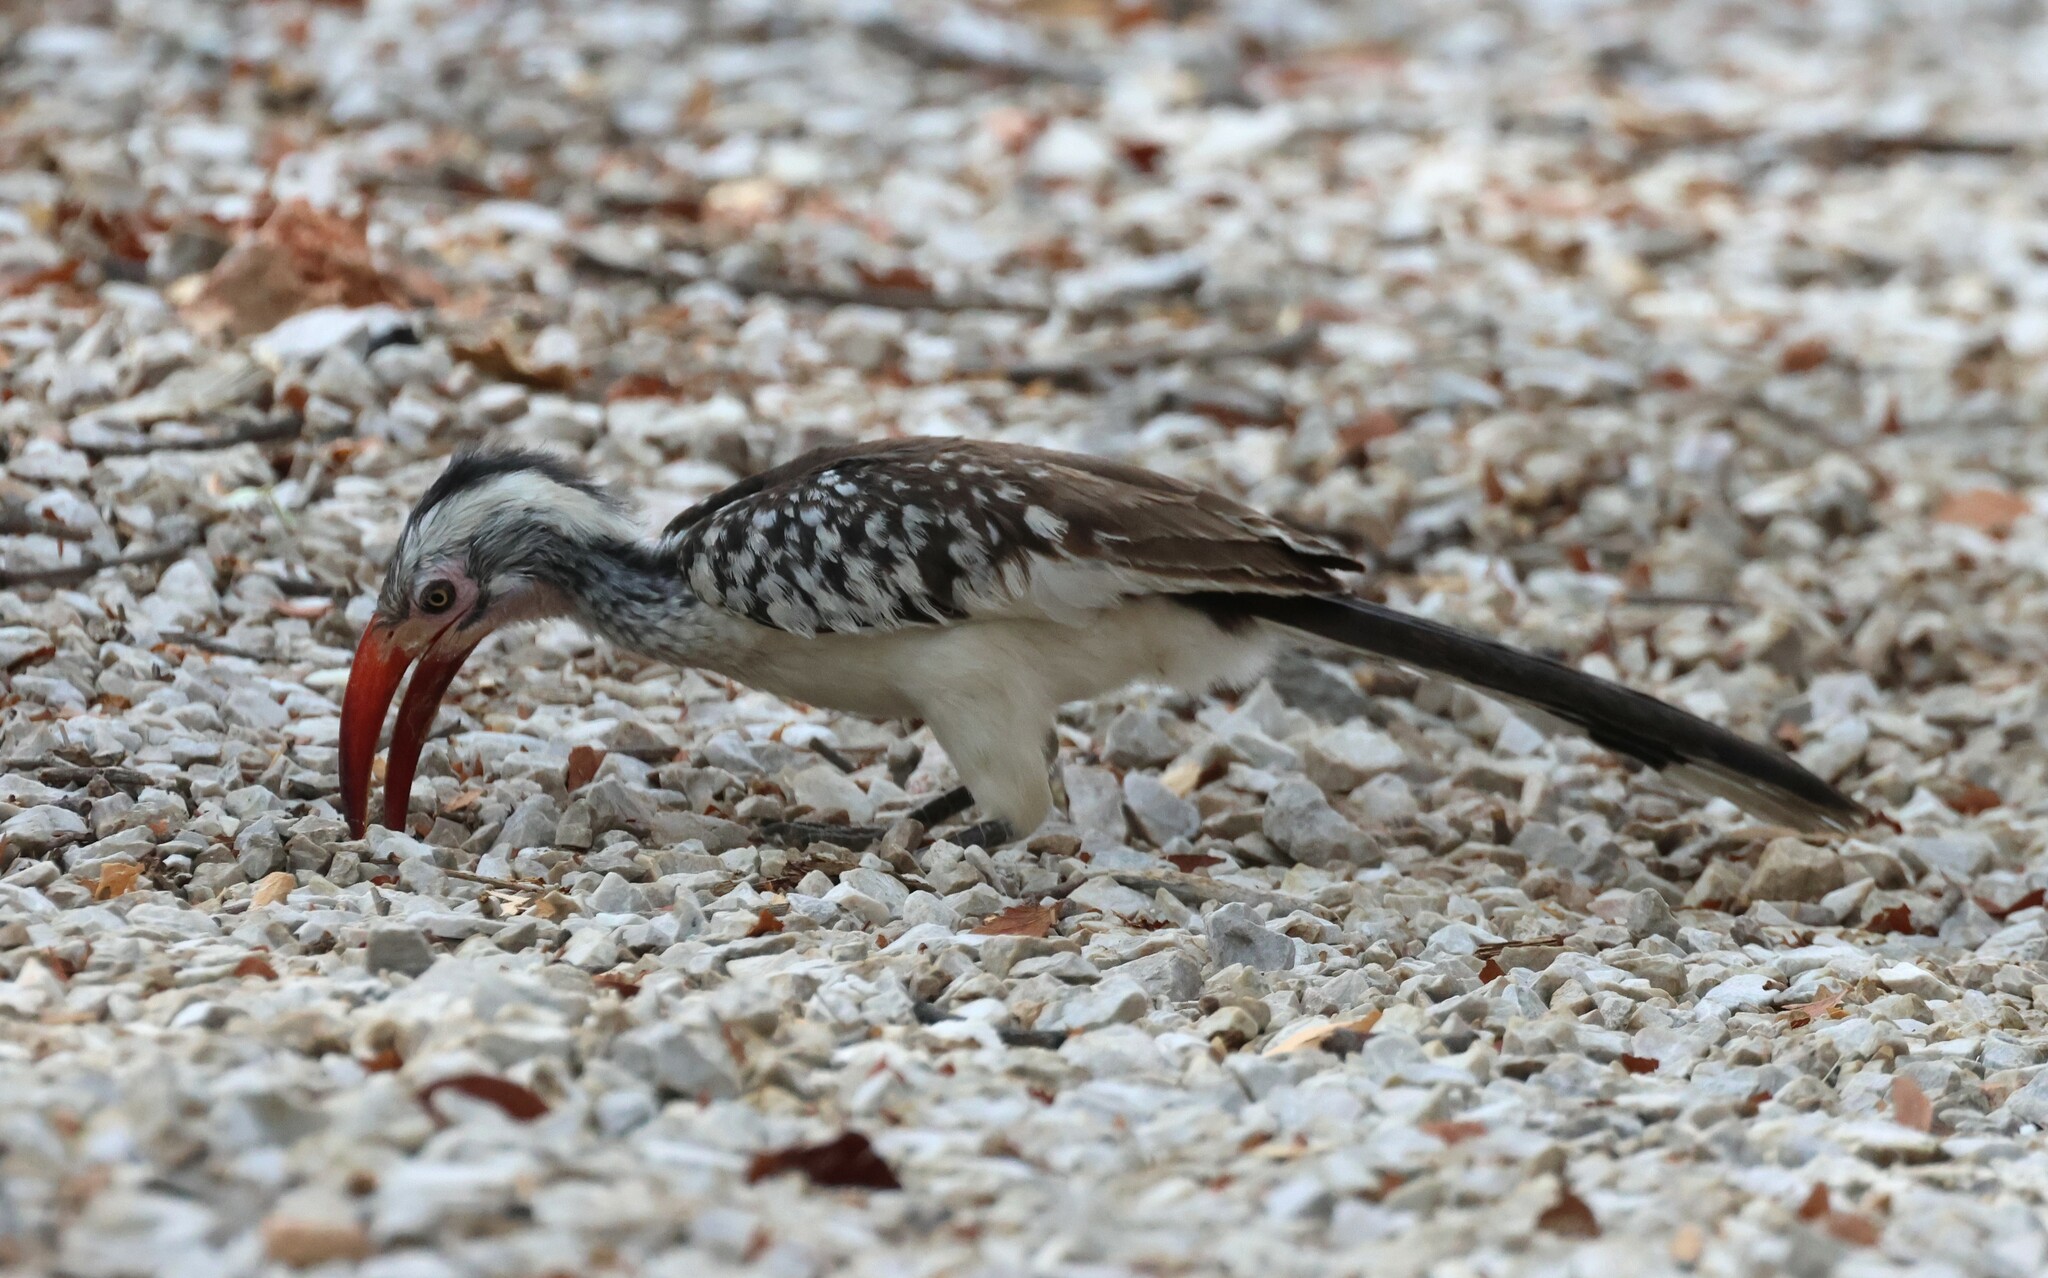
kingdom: Animalia
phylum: Chordata
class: Aves
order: Bucerotiformes
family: Bucerotidae
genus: Tockus
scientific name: Tockus rufirostris
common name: Southern red-billed hornbill
